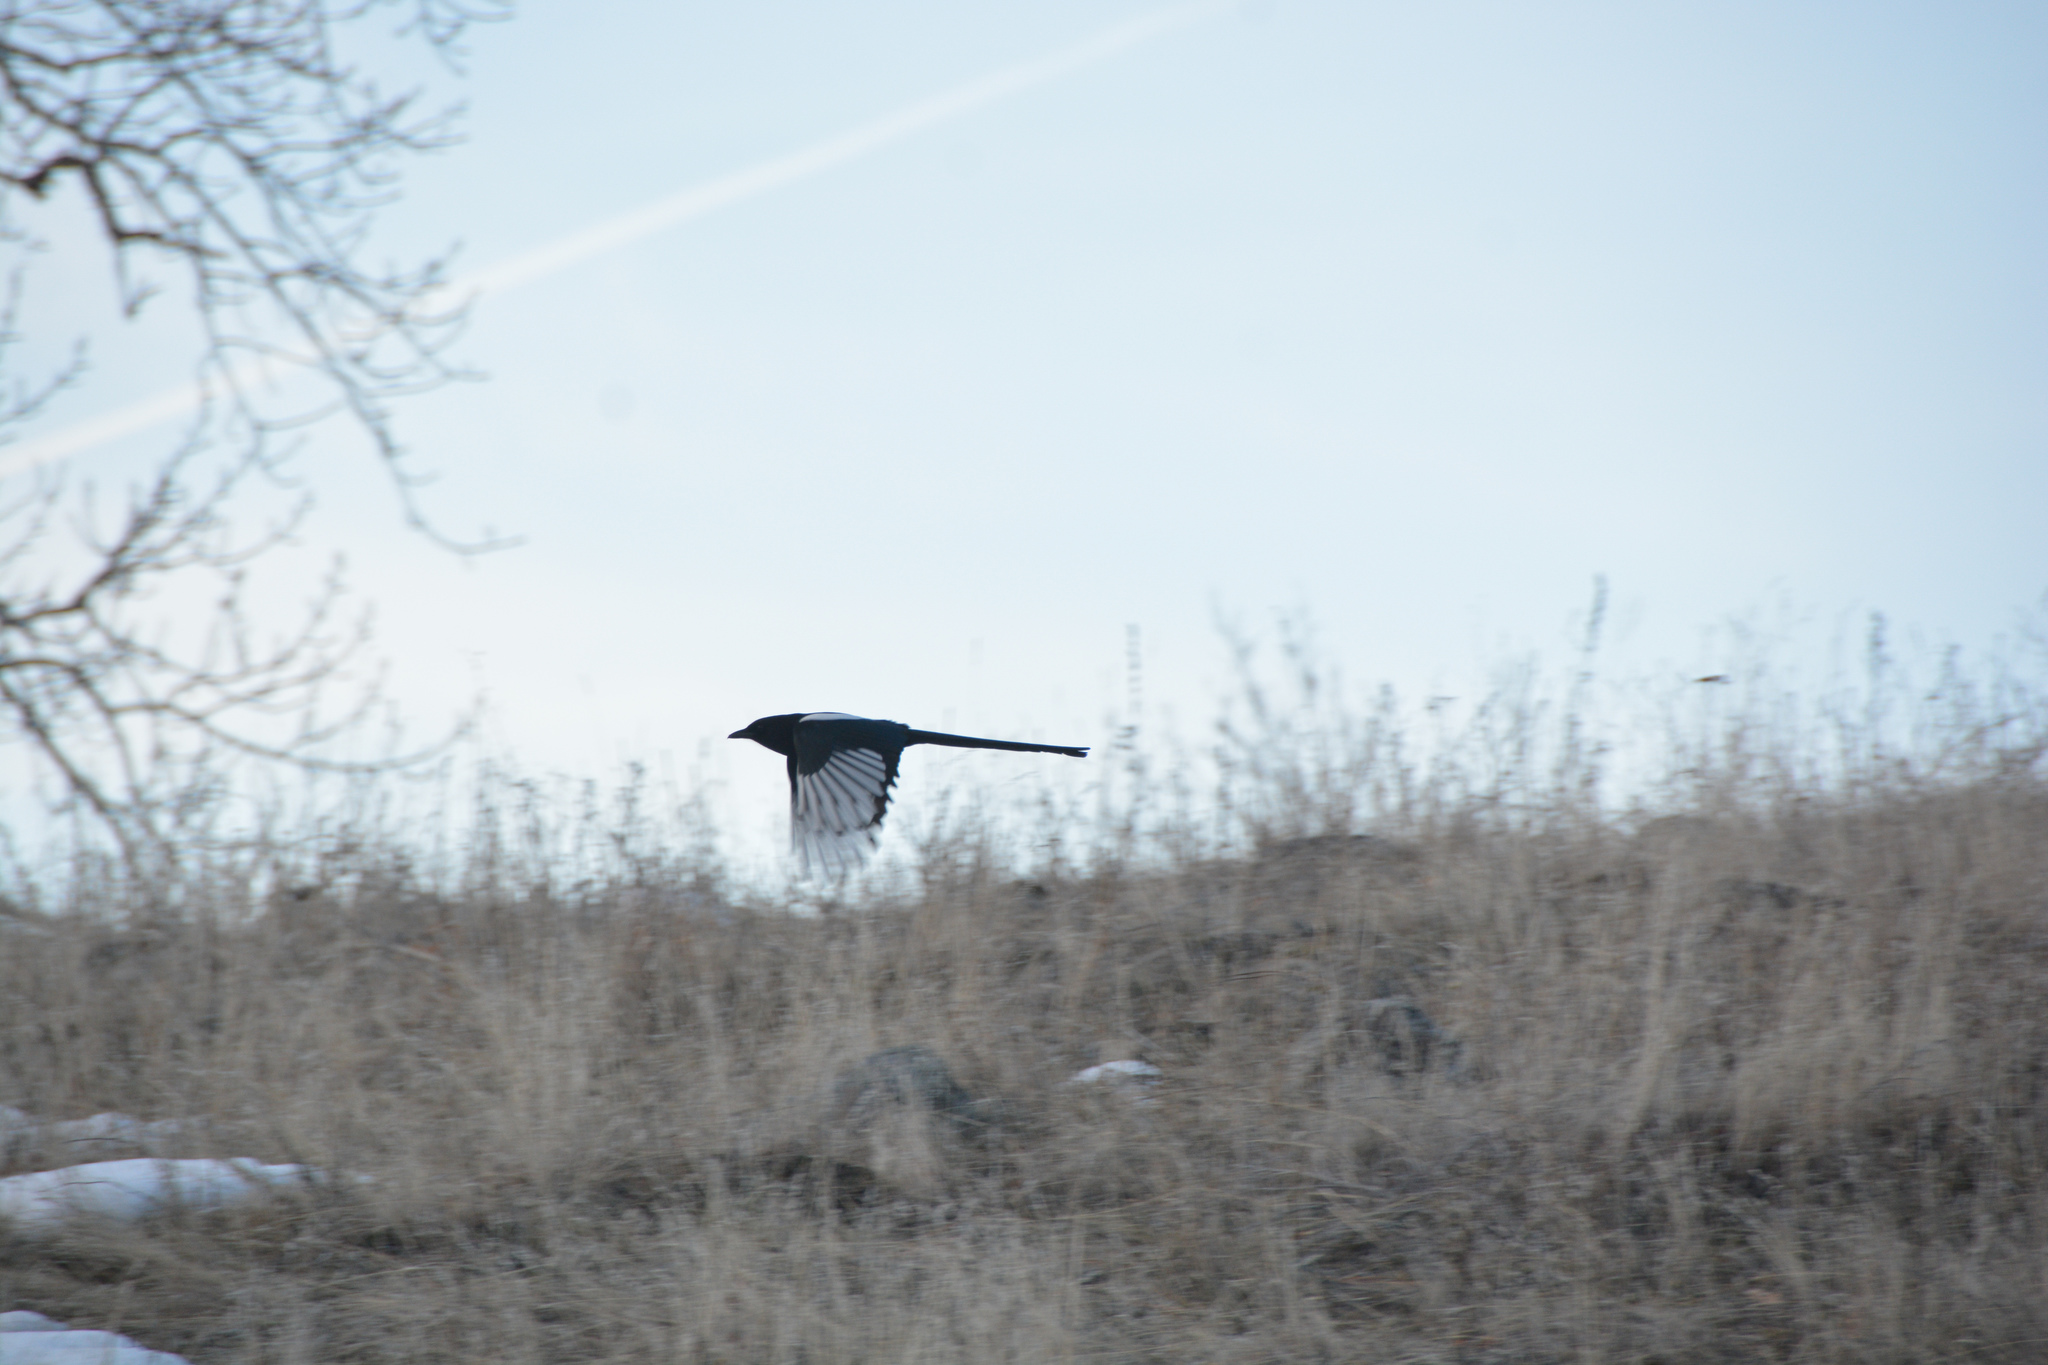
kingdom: Animalia
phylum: Chordata
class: Aves
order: Passeriformes
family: Corvidae
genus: Pica
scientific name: Pica hudsonia
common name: Black-billed magpie
